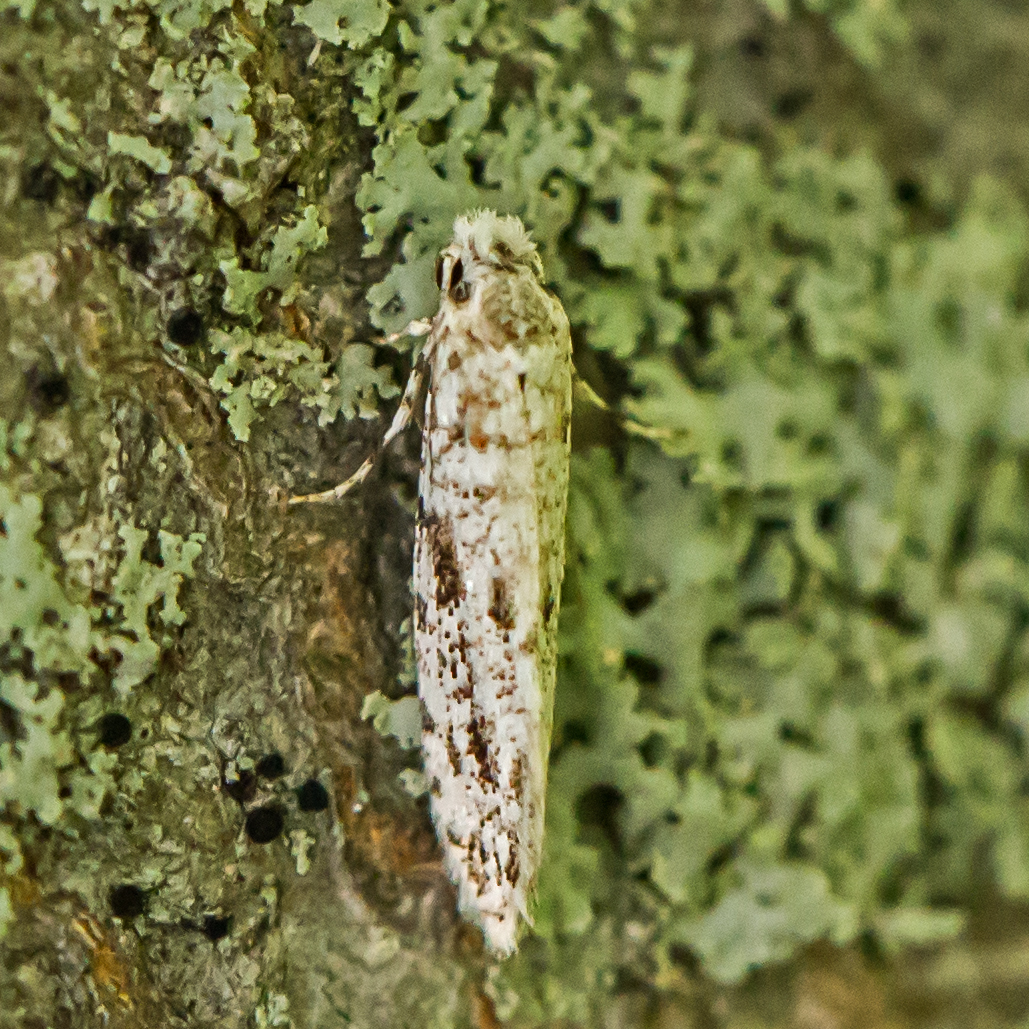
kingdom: Animalia
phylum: Arthropoda
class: Insecta
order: Lepidoptera
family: Meessiidae
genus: Diachorisia
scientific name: Diachorisia velatella
